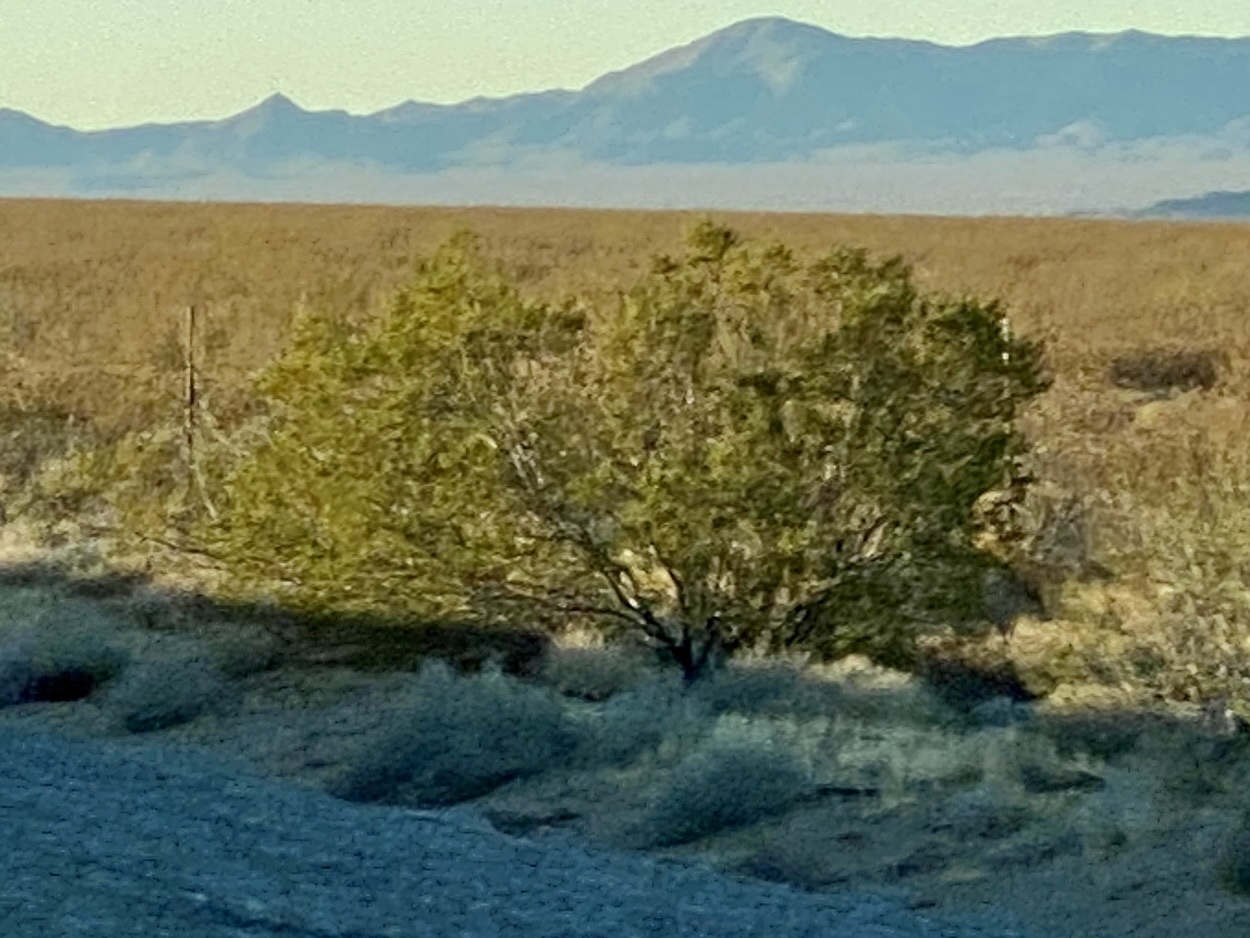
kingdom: Plantae
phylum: Tracheophyta
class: Magnoliopsida
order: Zygophyllales
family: Zygophyllaceae
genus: Larrea
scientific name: Larrea tridentata
